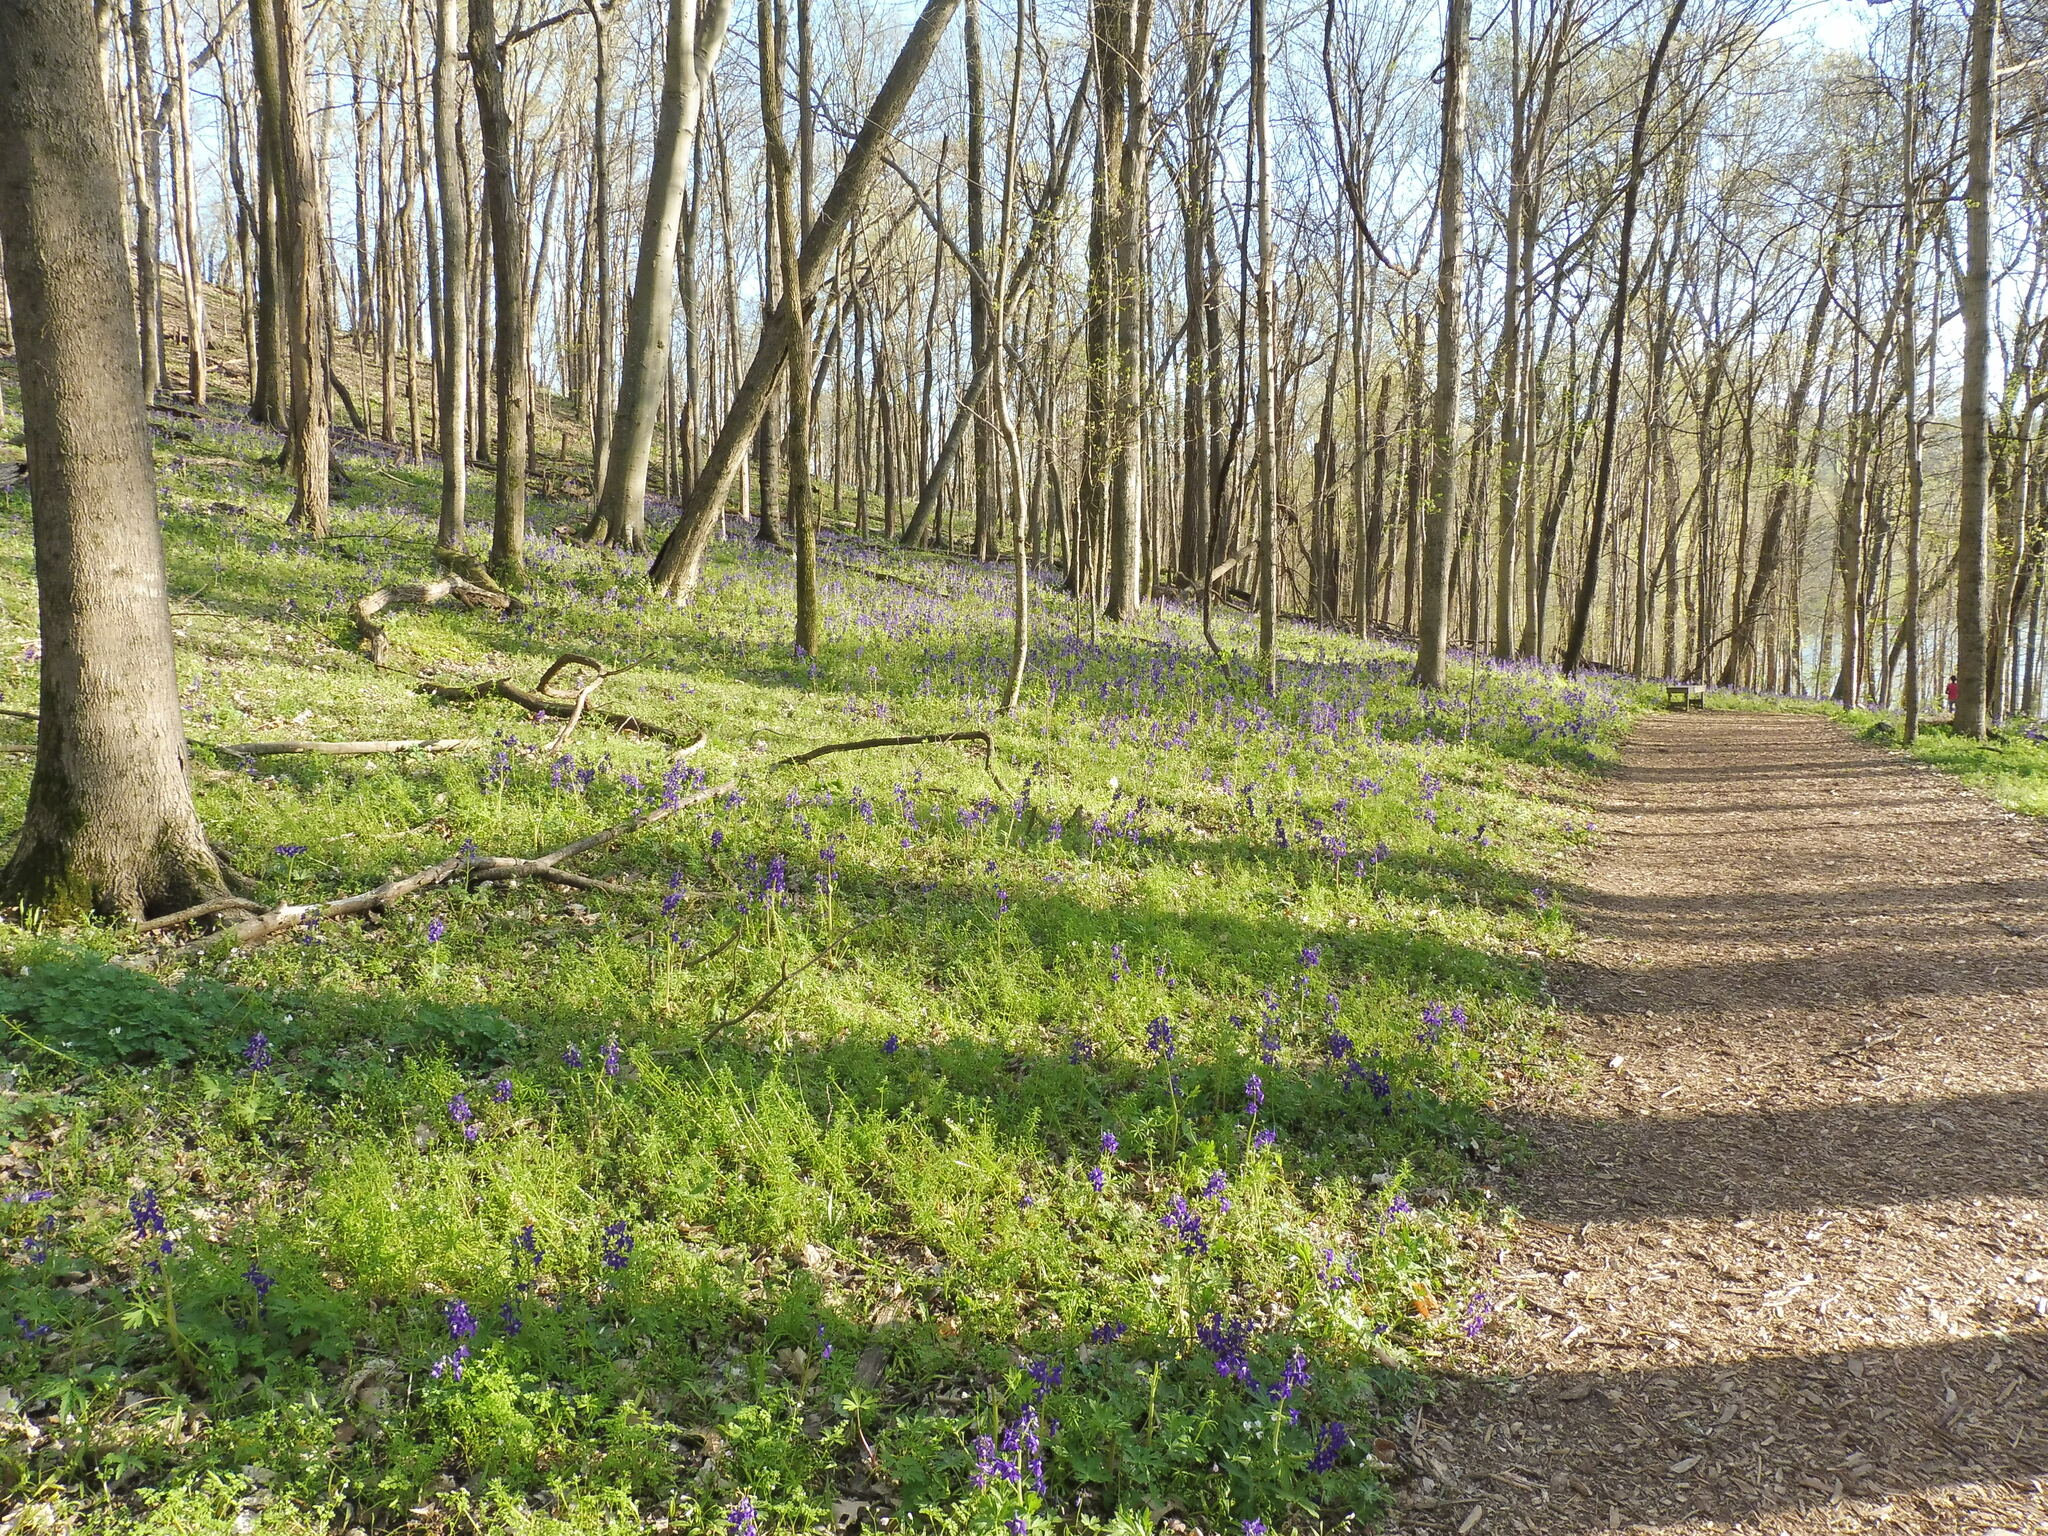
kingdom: Plantae
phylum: Tracheophyta
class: Magnoliopsida
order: Ranunculales
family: Ranunculaceae
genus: Delphinium
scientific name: Delphinium tricorne
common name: Dwarf larkspur
